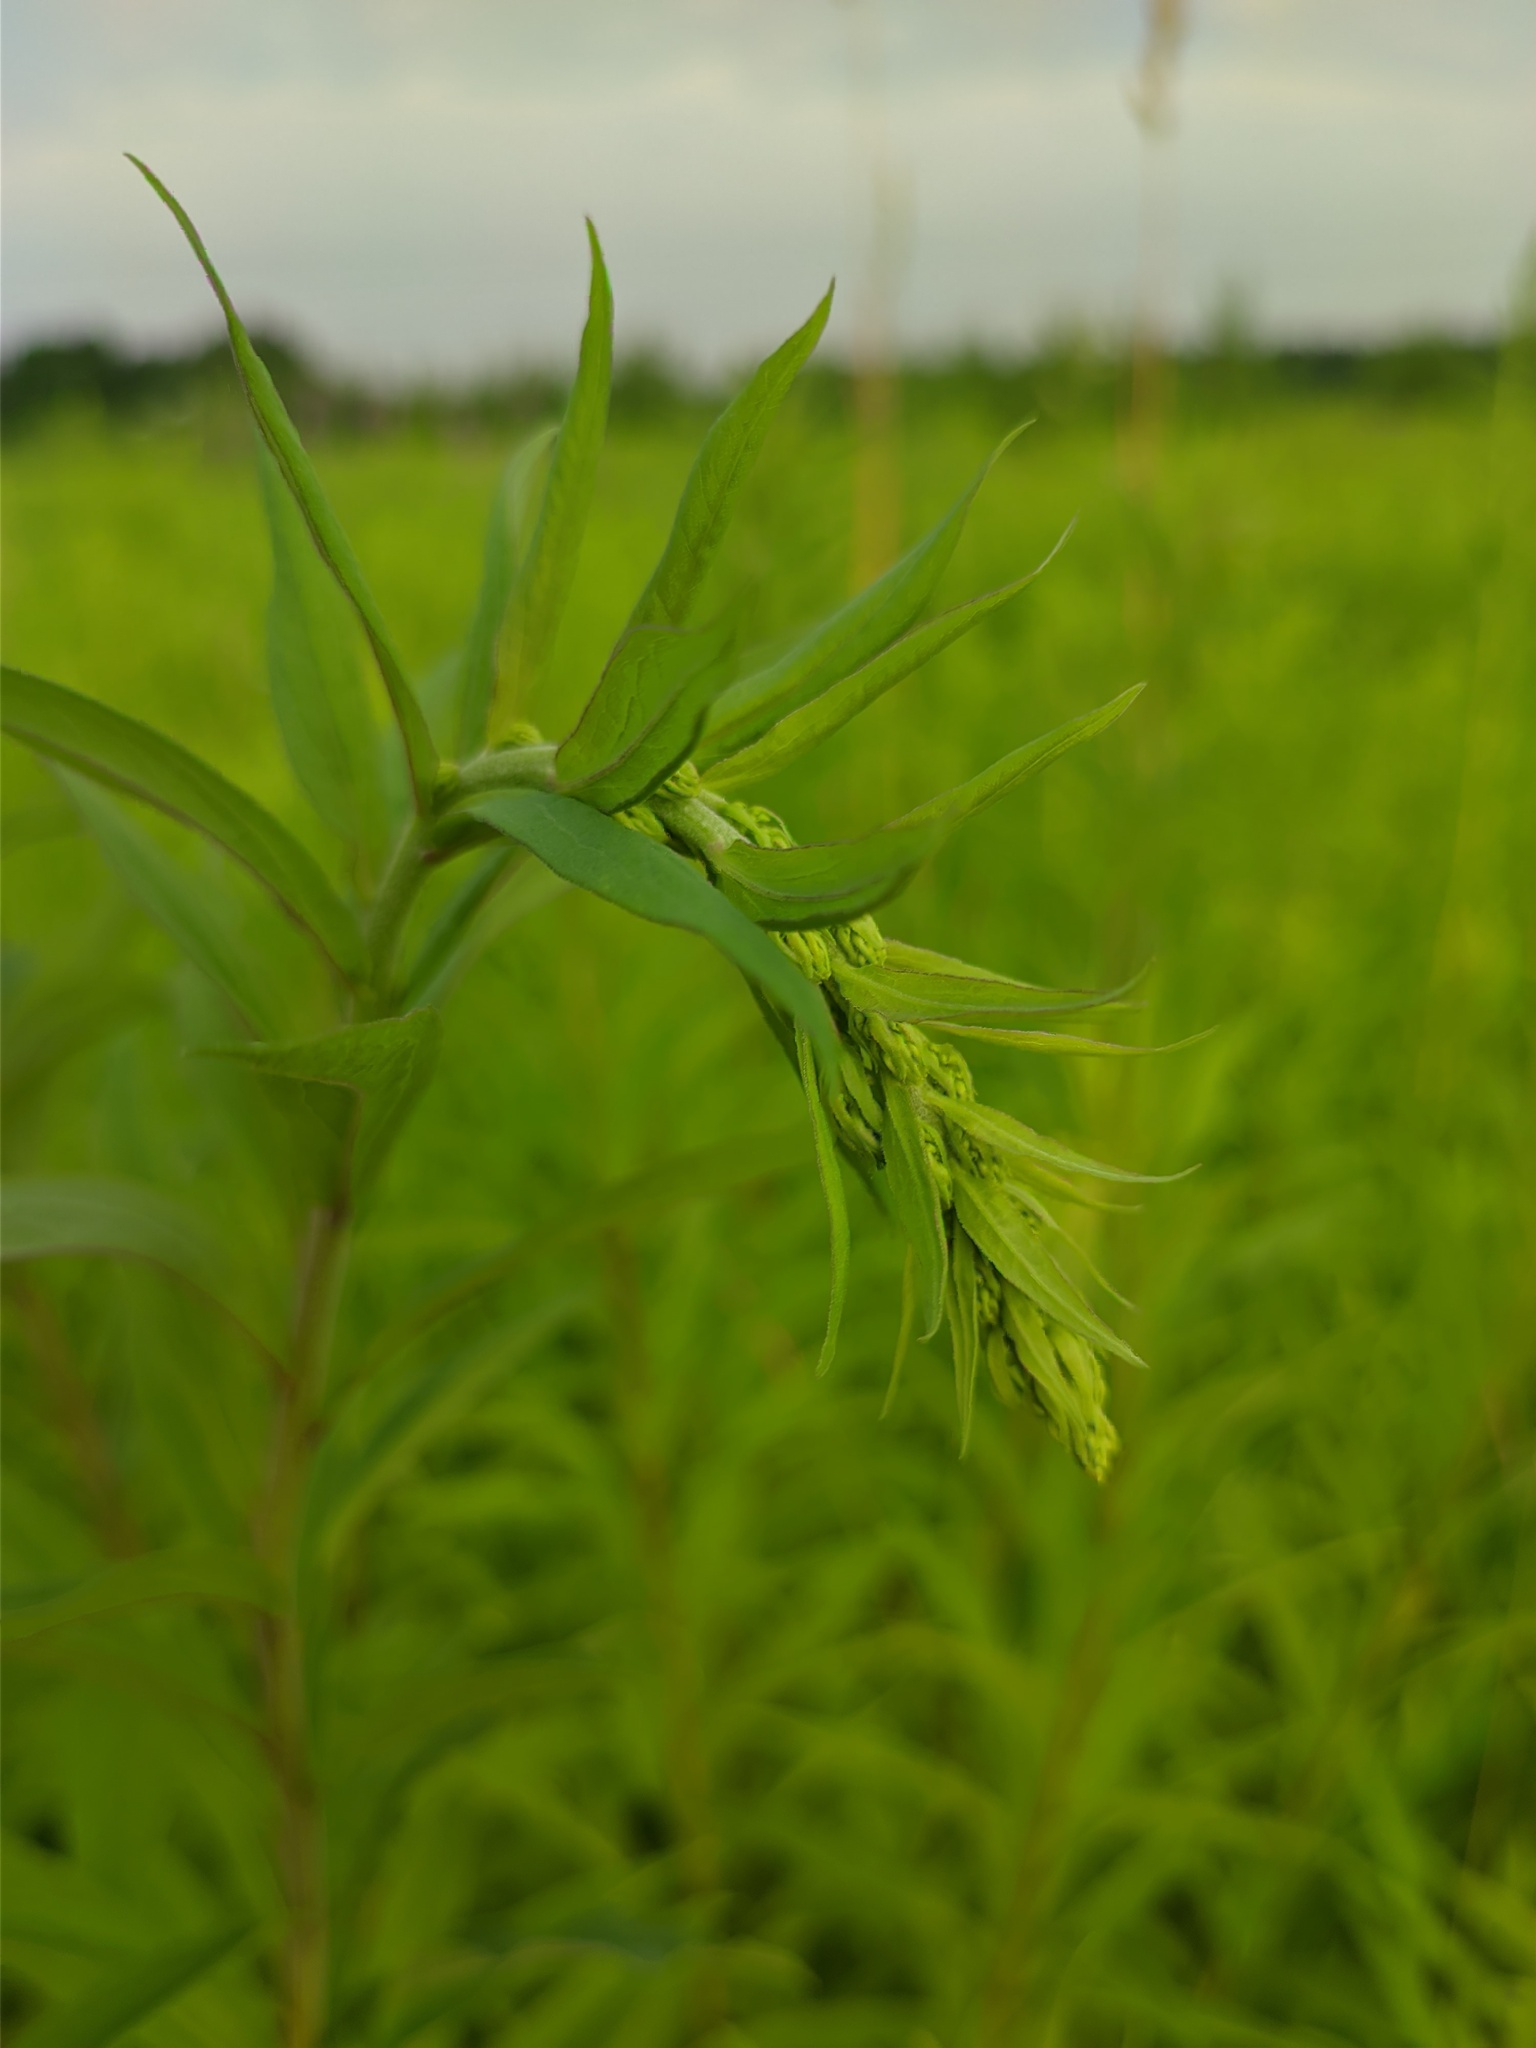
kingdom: Plantae
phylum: Tracheophyta
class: Magnoliopsida
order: Asterales
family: Asteraceae
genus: Solidago
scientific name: Solidago canadensis
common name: Canada goldenrod
